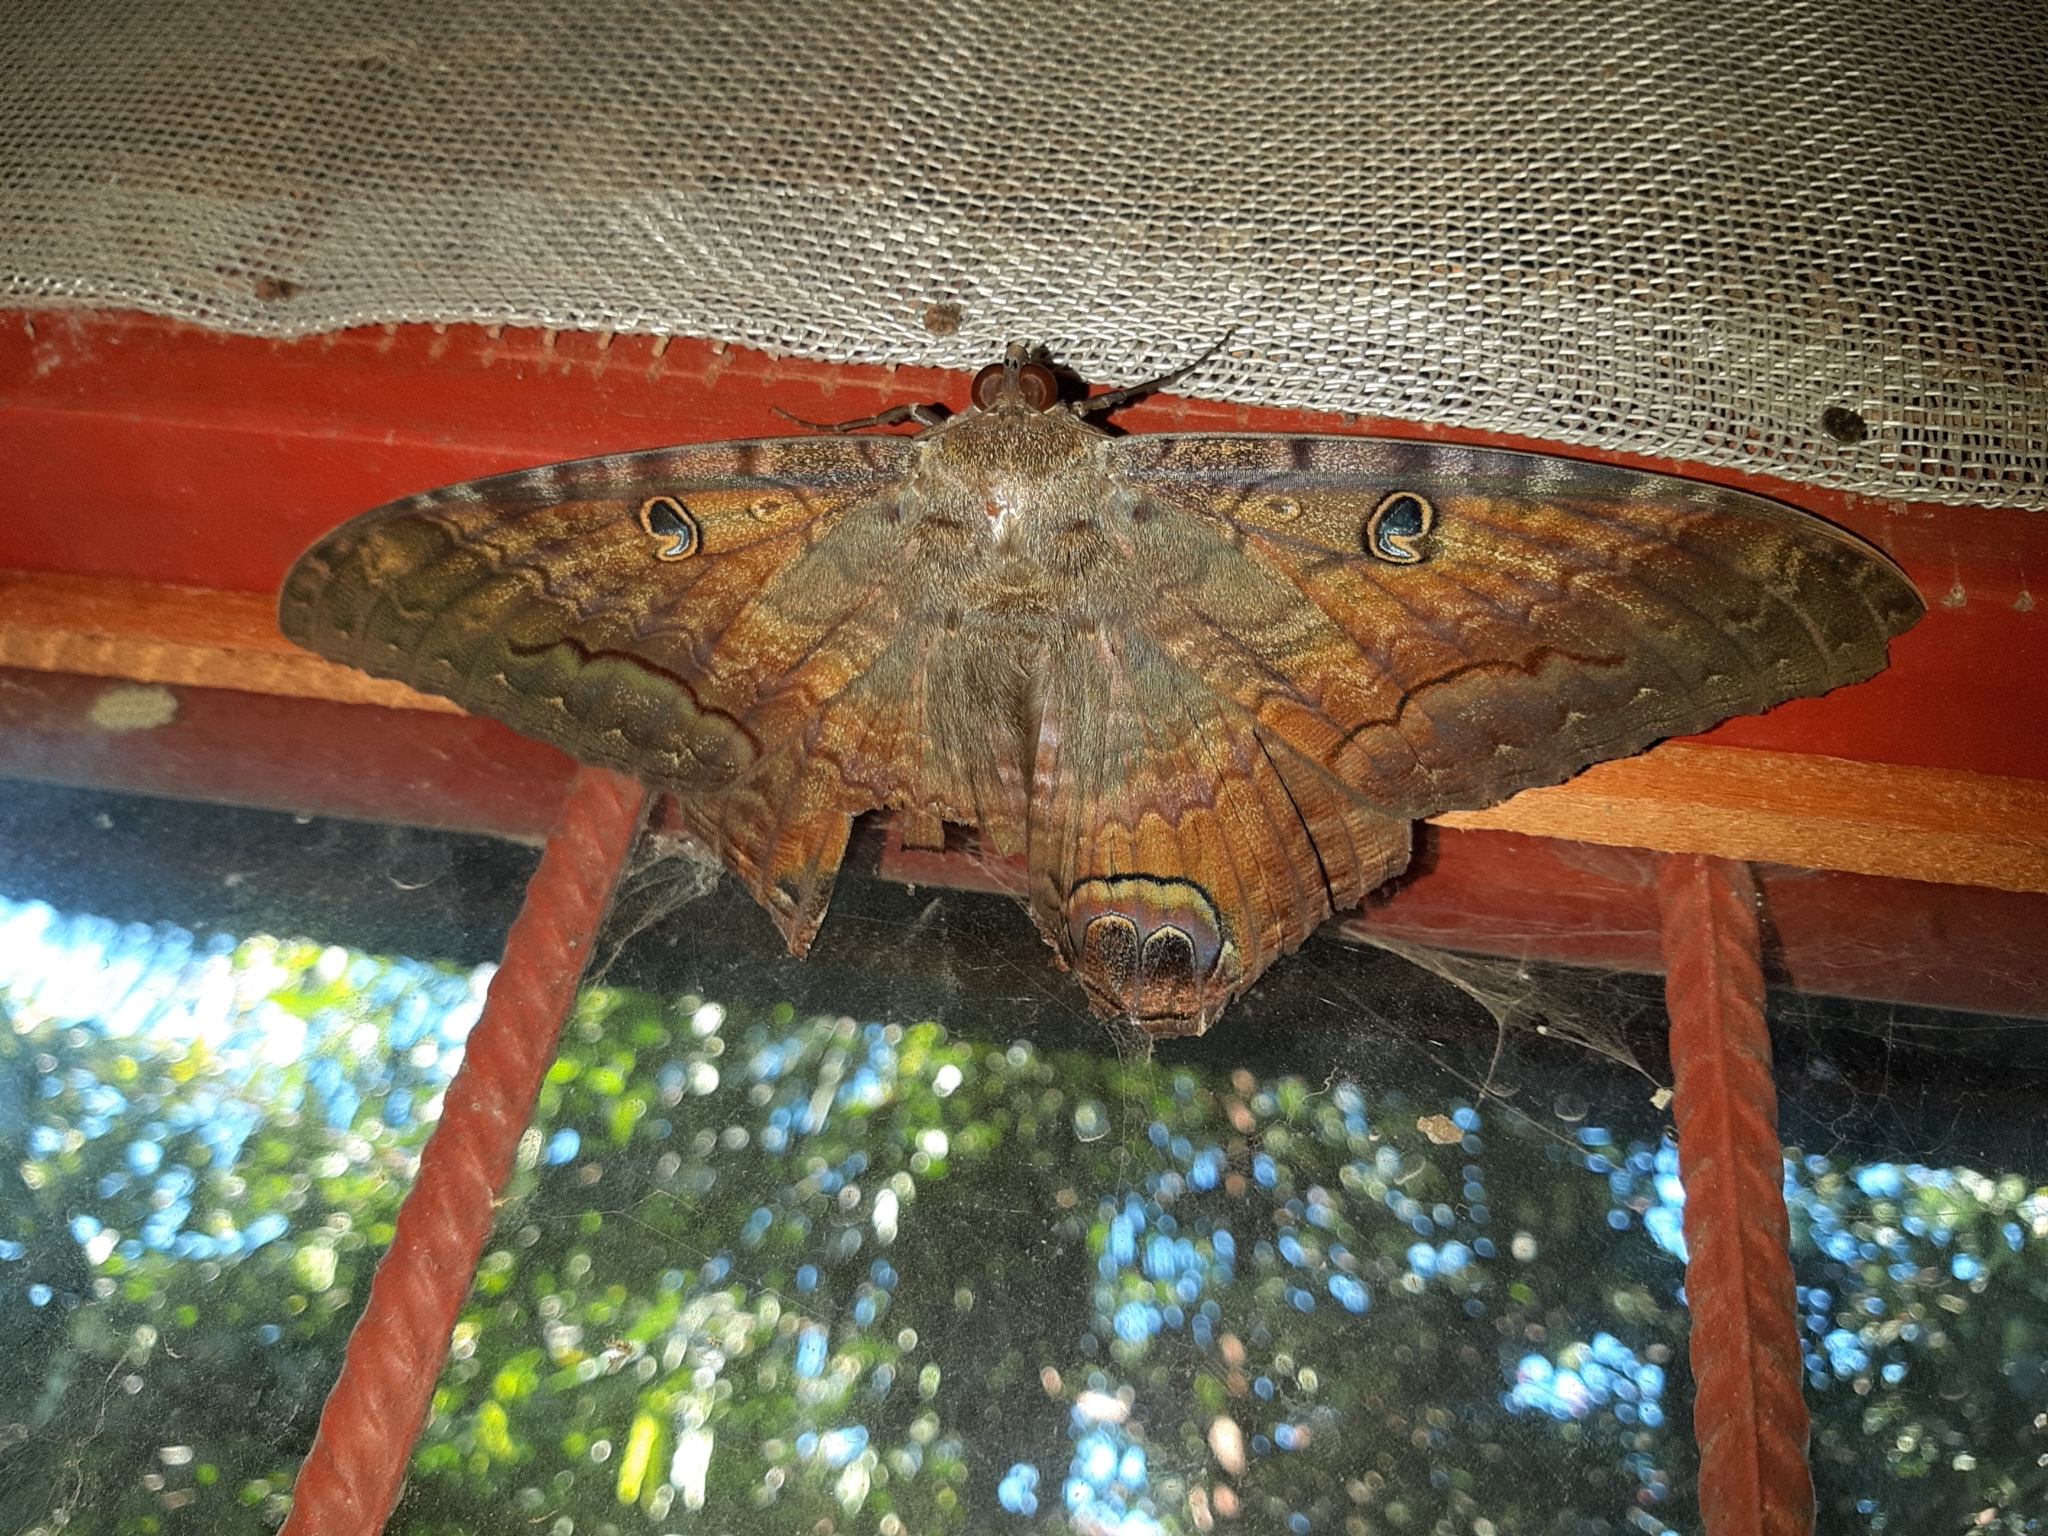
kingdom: Animalia
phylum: Arthropoda
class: Insecta
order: Lepidoptera
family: Erebidae
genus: Ascalapha
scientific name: Ascalapha odorata
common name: Black witch
